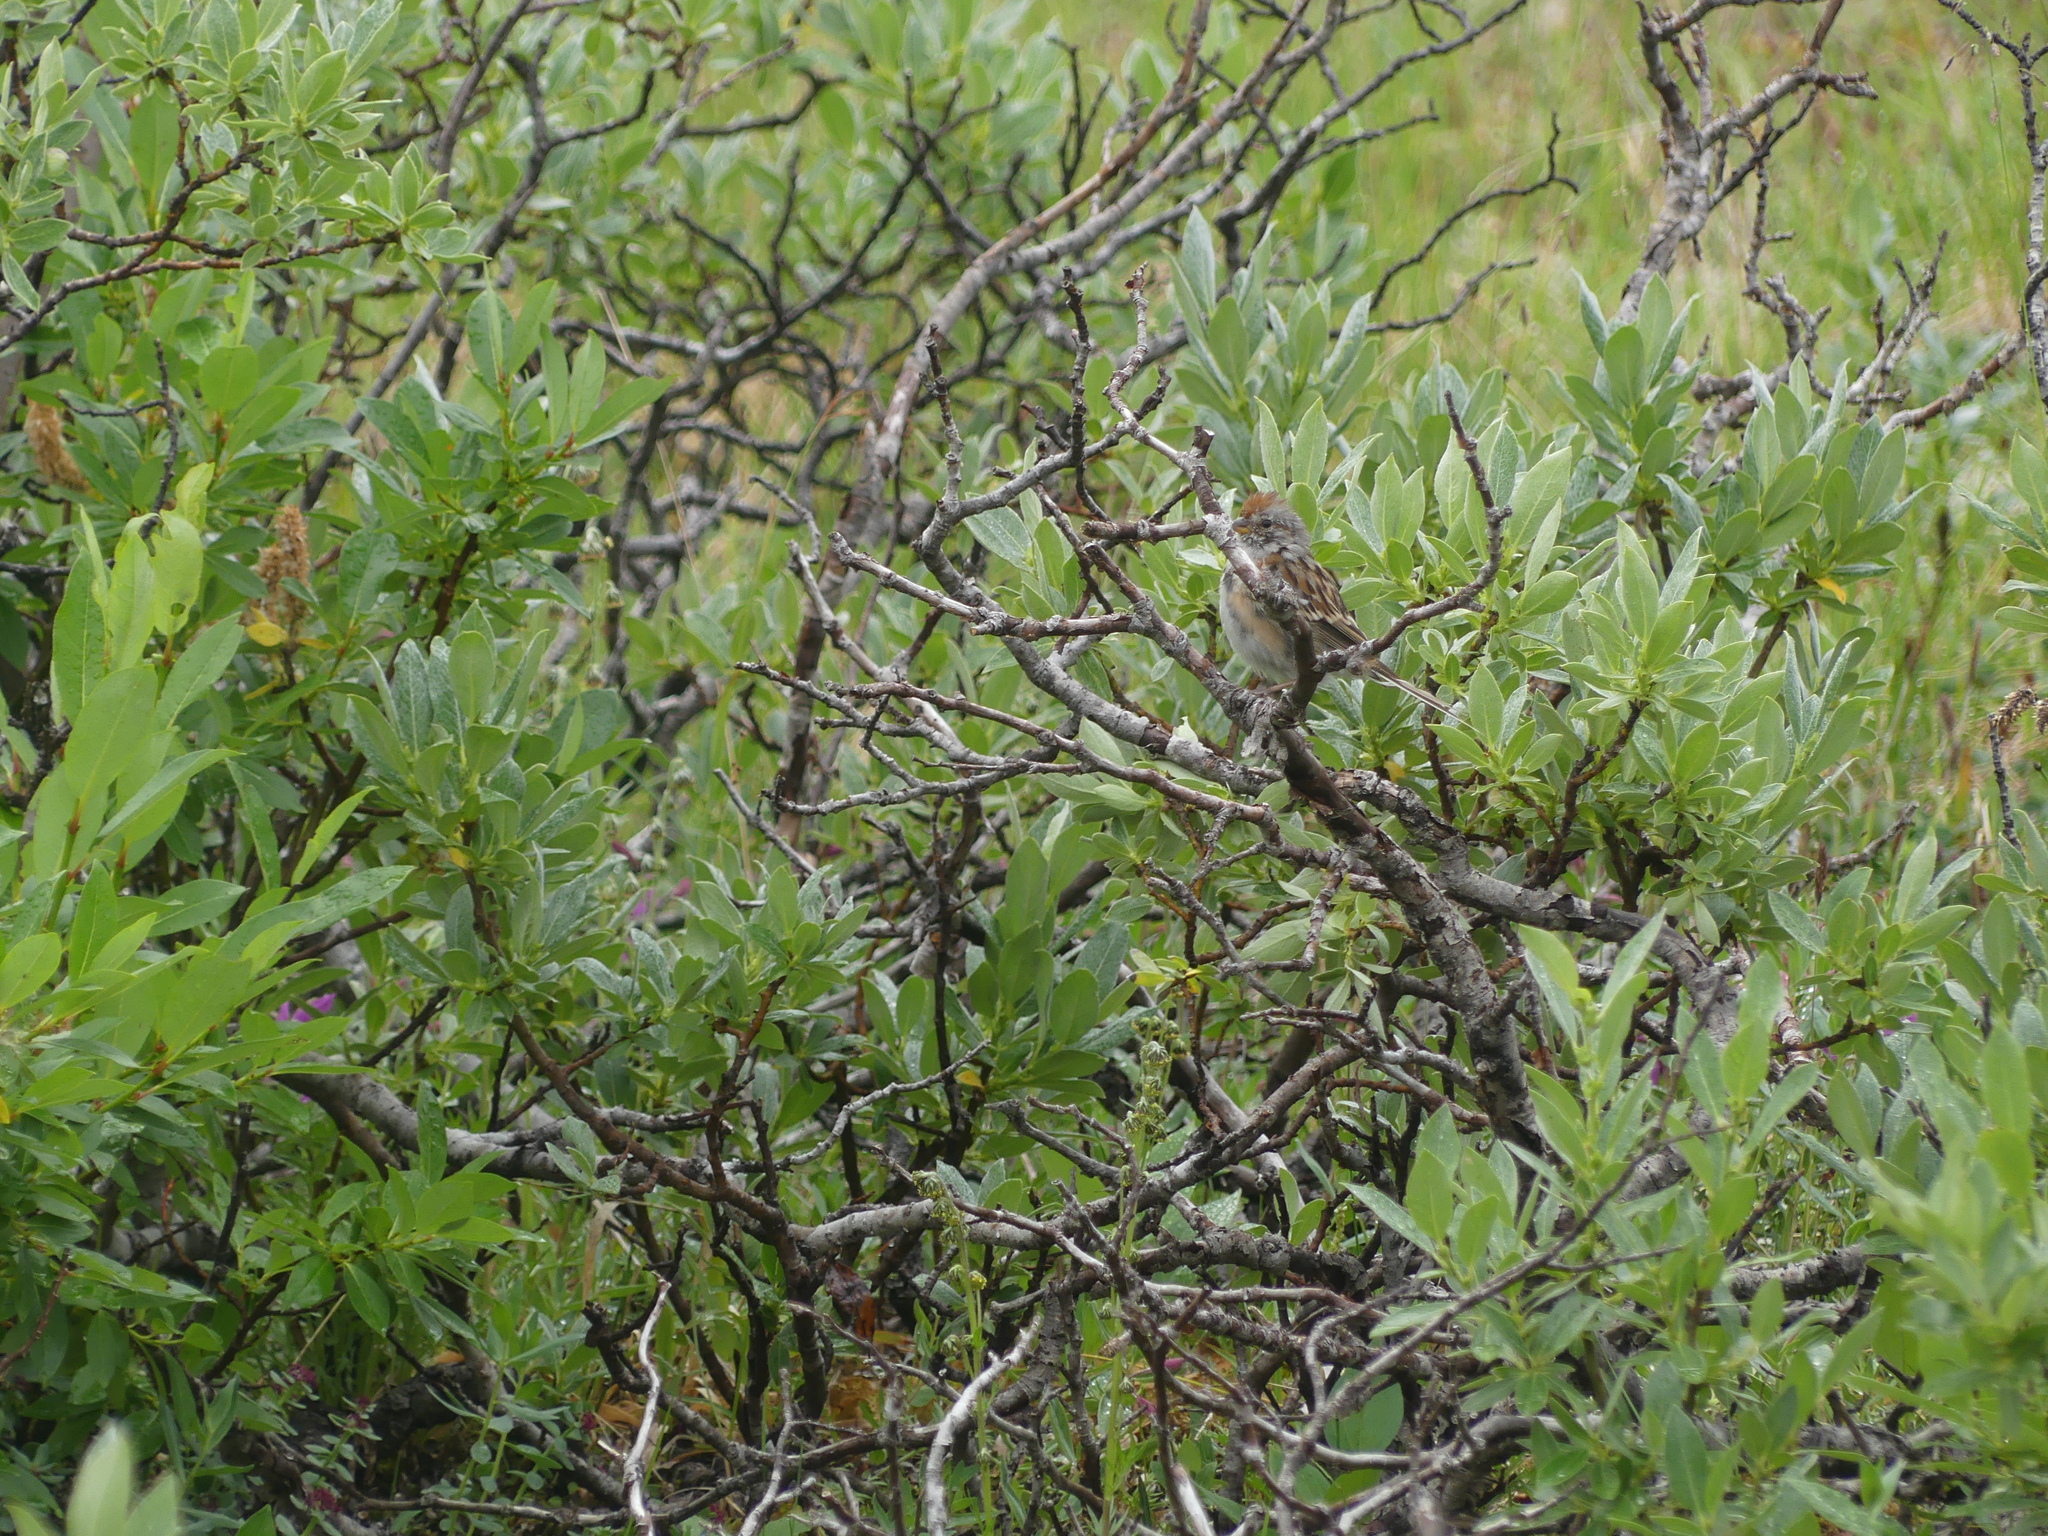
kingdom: Animalia
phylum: Chordata
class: Aves
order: Passeriformes
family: Passerellidae
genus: Spizelloides
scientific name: Spizelloides arborea
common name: American tree sparrow
